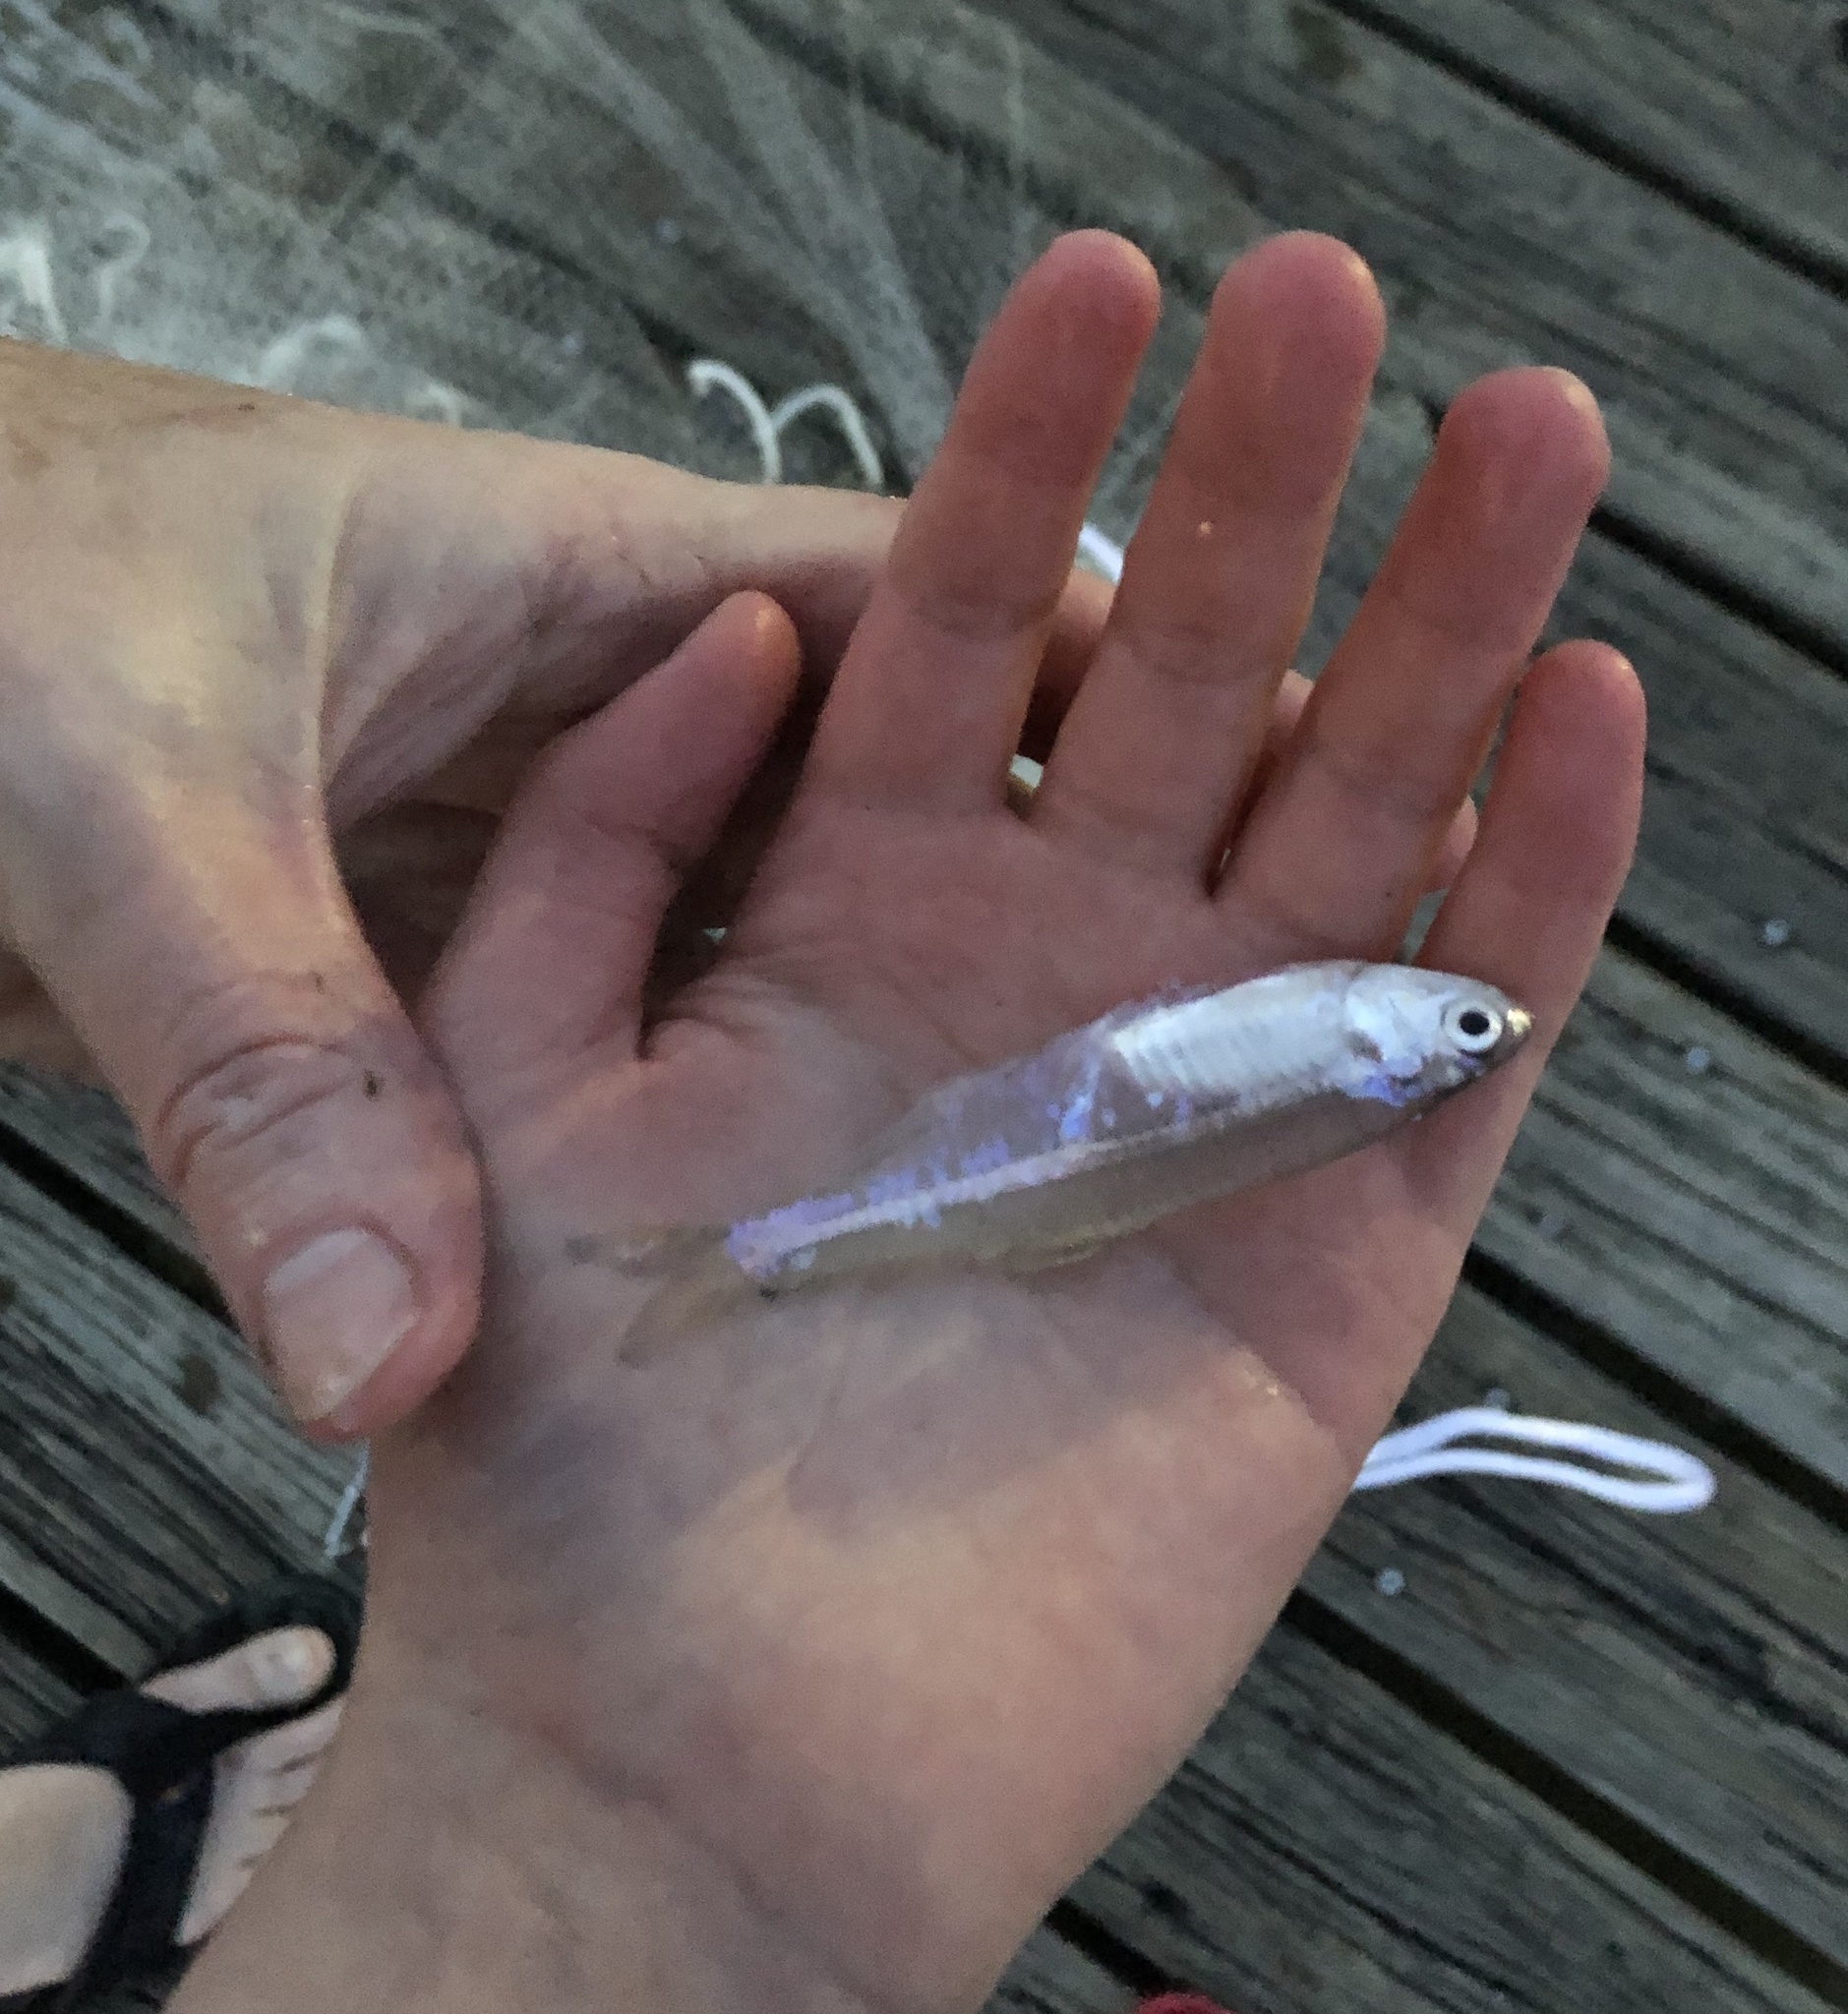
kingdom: Animalia
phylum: Chordata
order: Clupeiformes
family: Engraulidae
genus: Anchoa
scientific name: Anchoa mitchilli
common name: Bay anchovy
